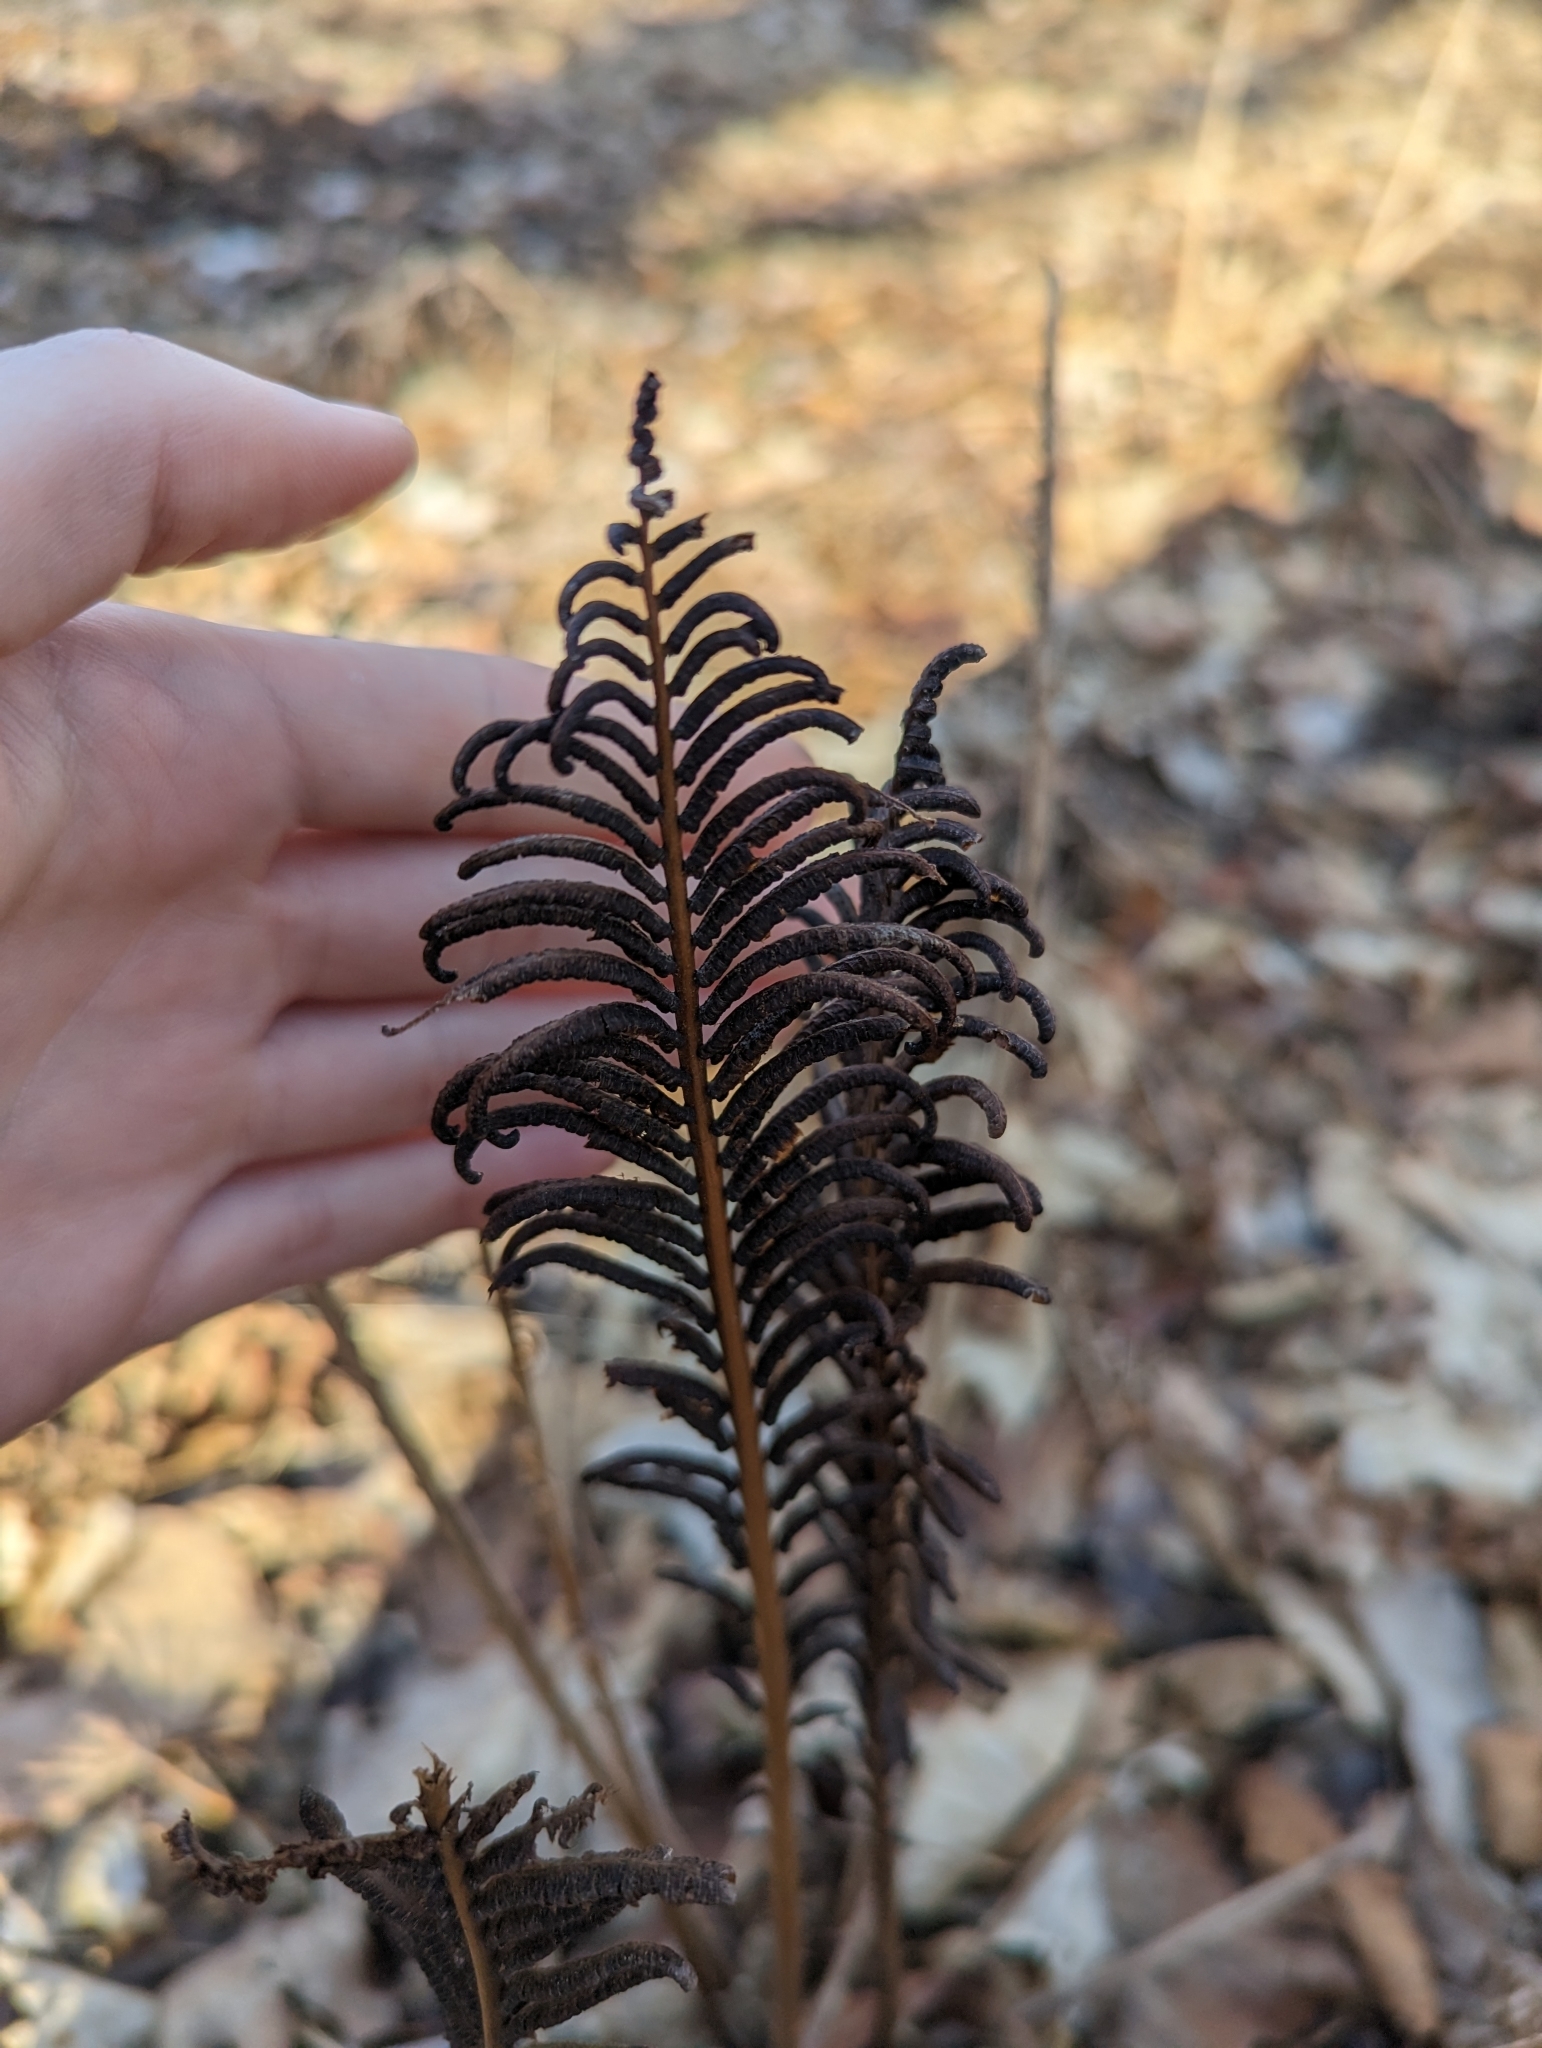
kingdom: Plantae
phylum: Tracheophyta
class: Polypodiopsida
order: Polypodiales
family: Onocleaceae
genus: Matteuccia
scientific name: Matteuccia struthiopteris
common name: Ostrich fern
